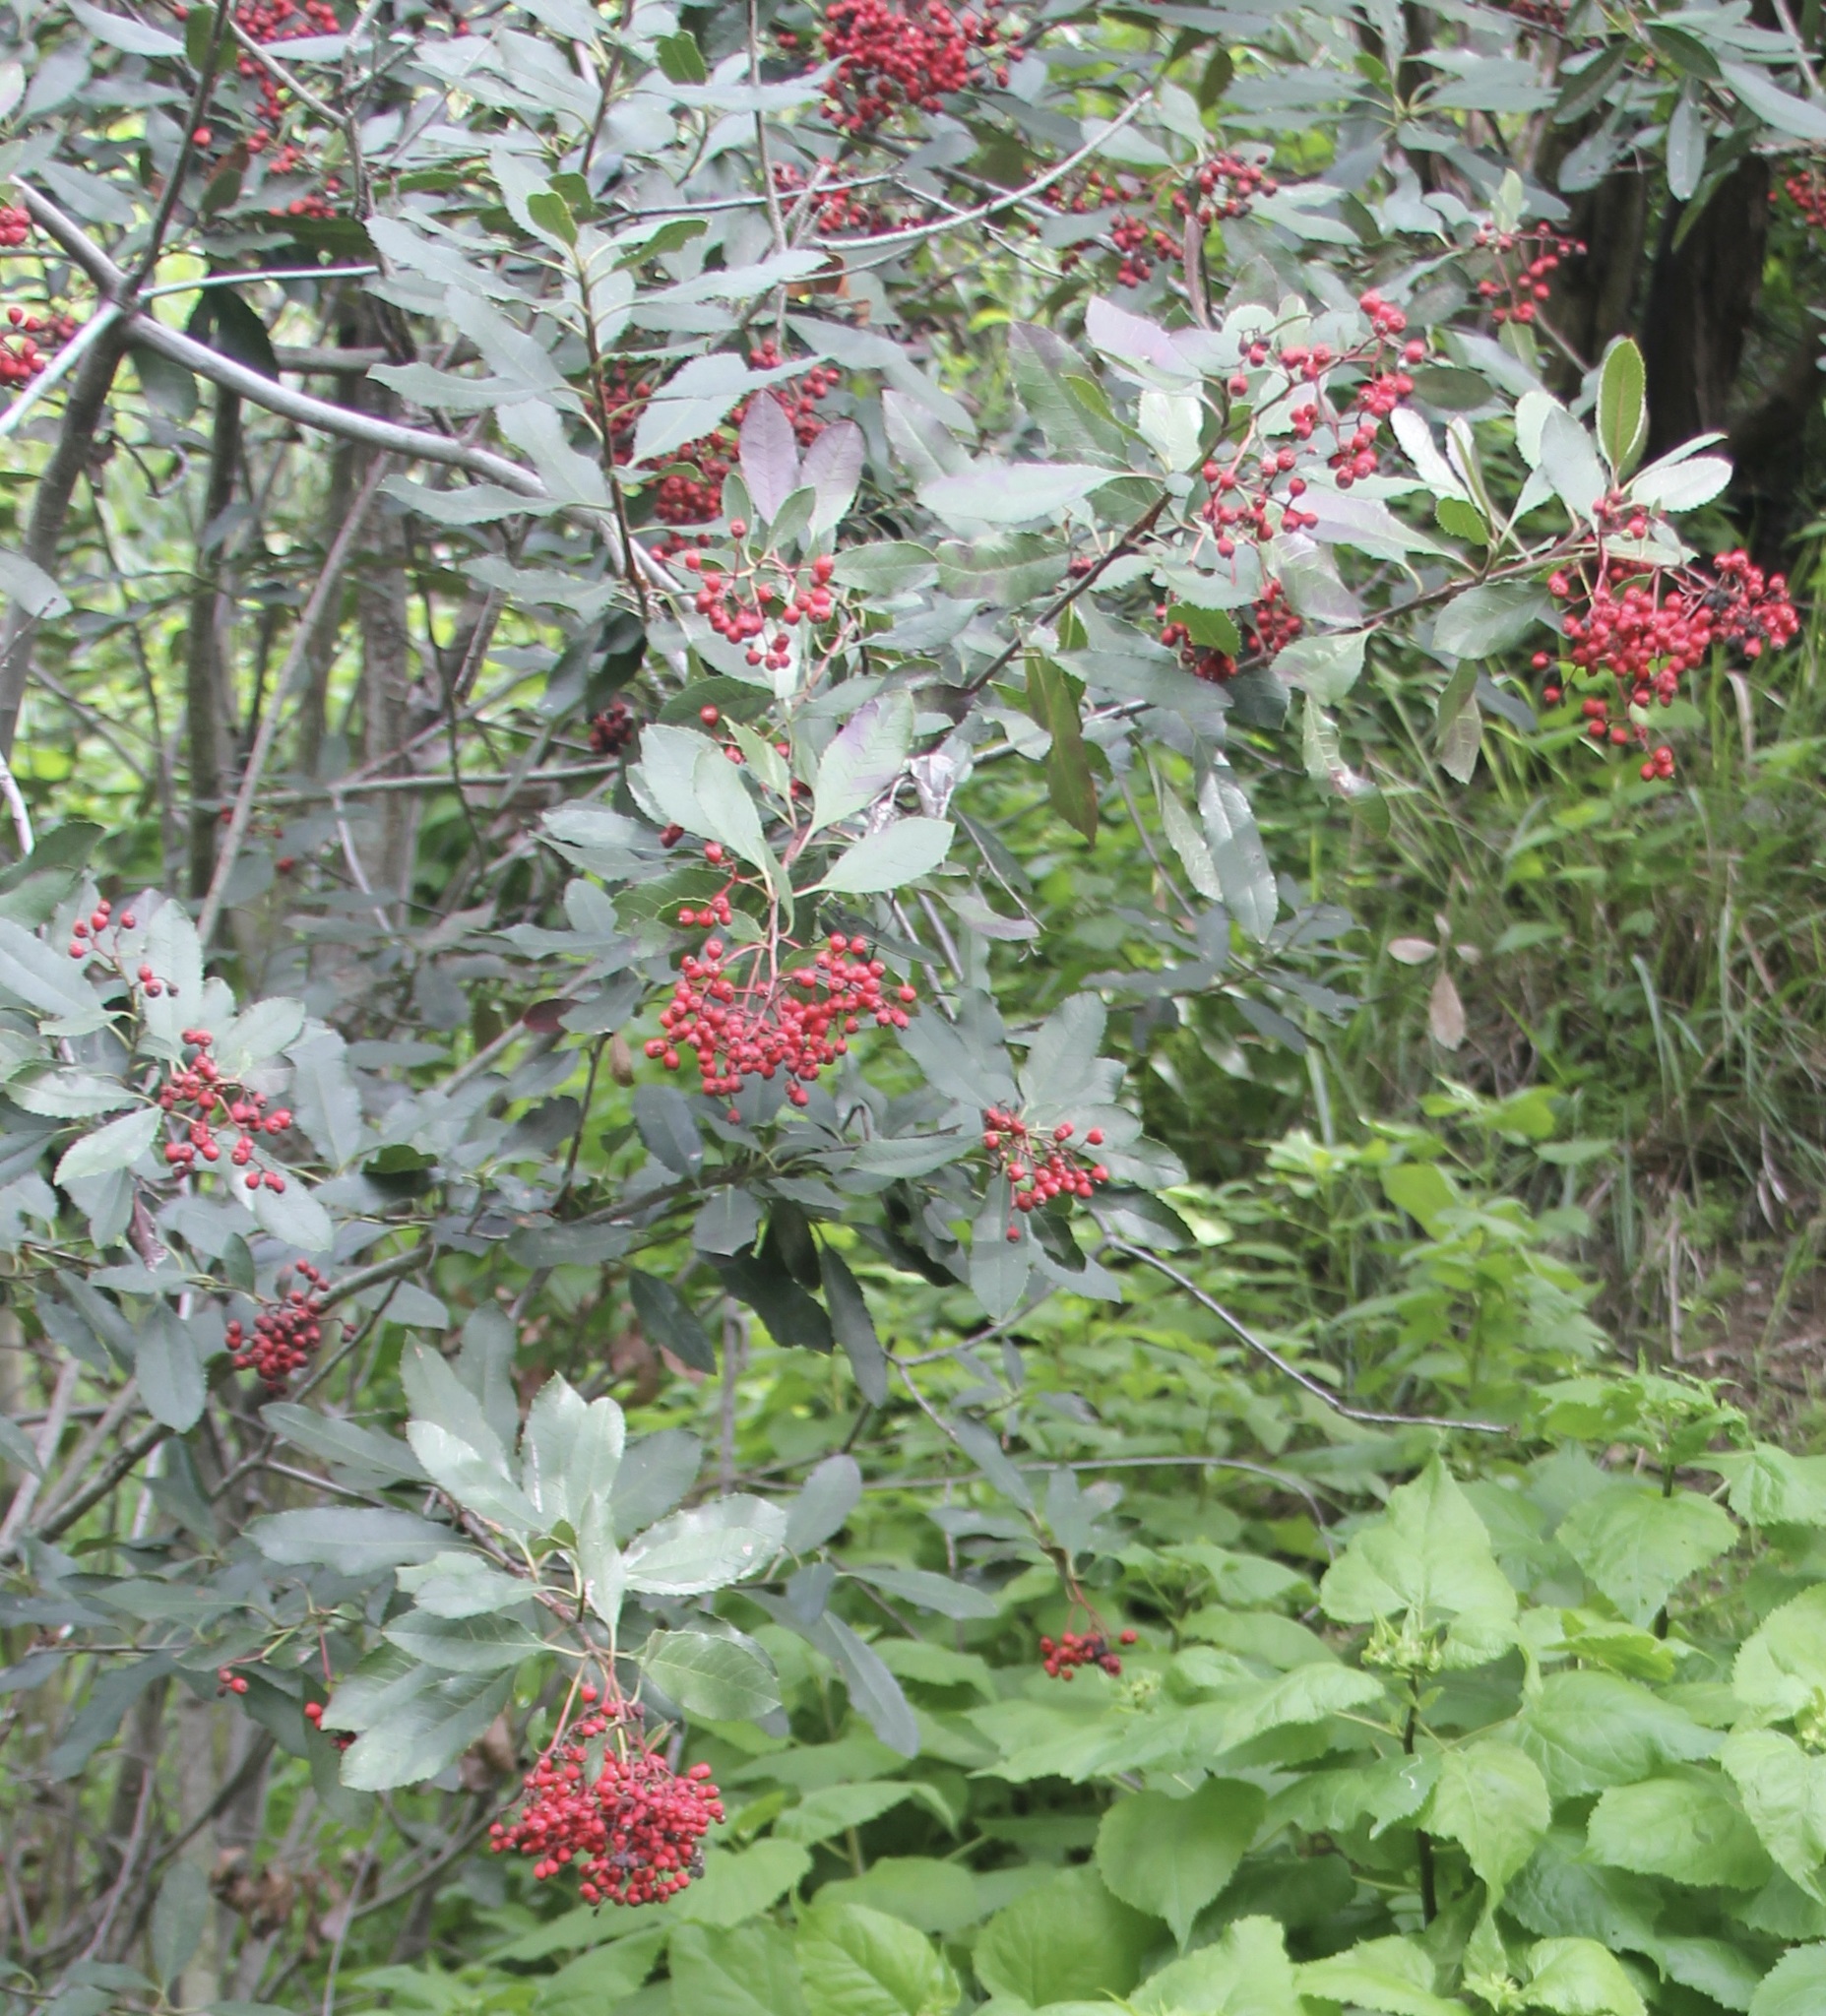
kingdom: Plantae
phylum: Tracheophyta
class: Magnoliopsida
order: Rosales
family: Rosaceae
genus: Heteromeles
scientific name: Heteromeles arbutifolia
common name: California-holly
